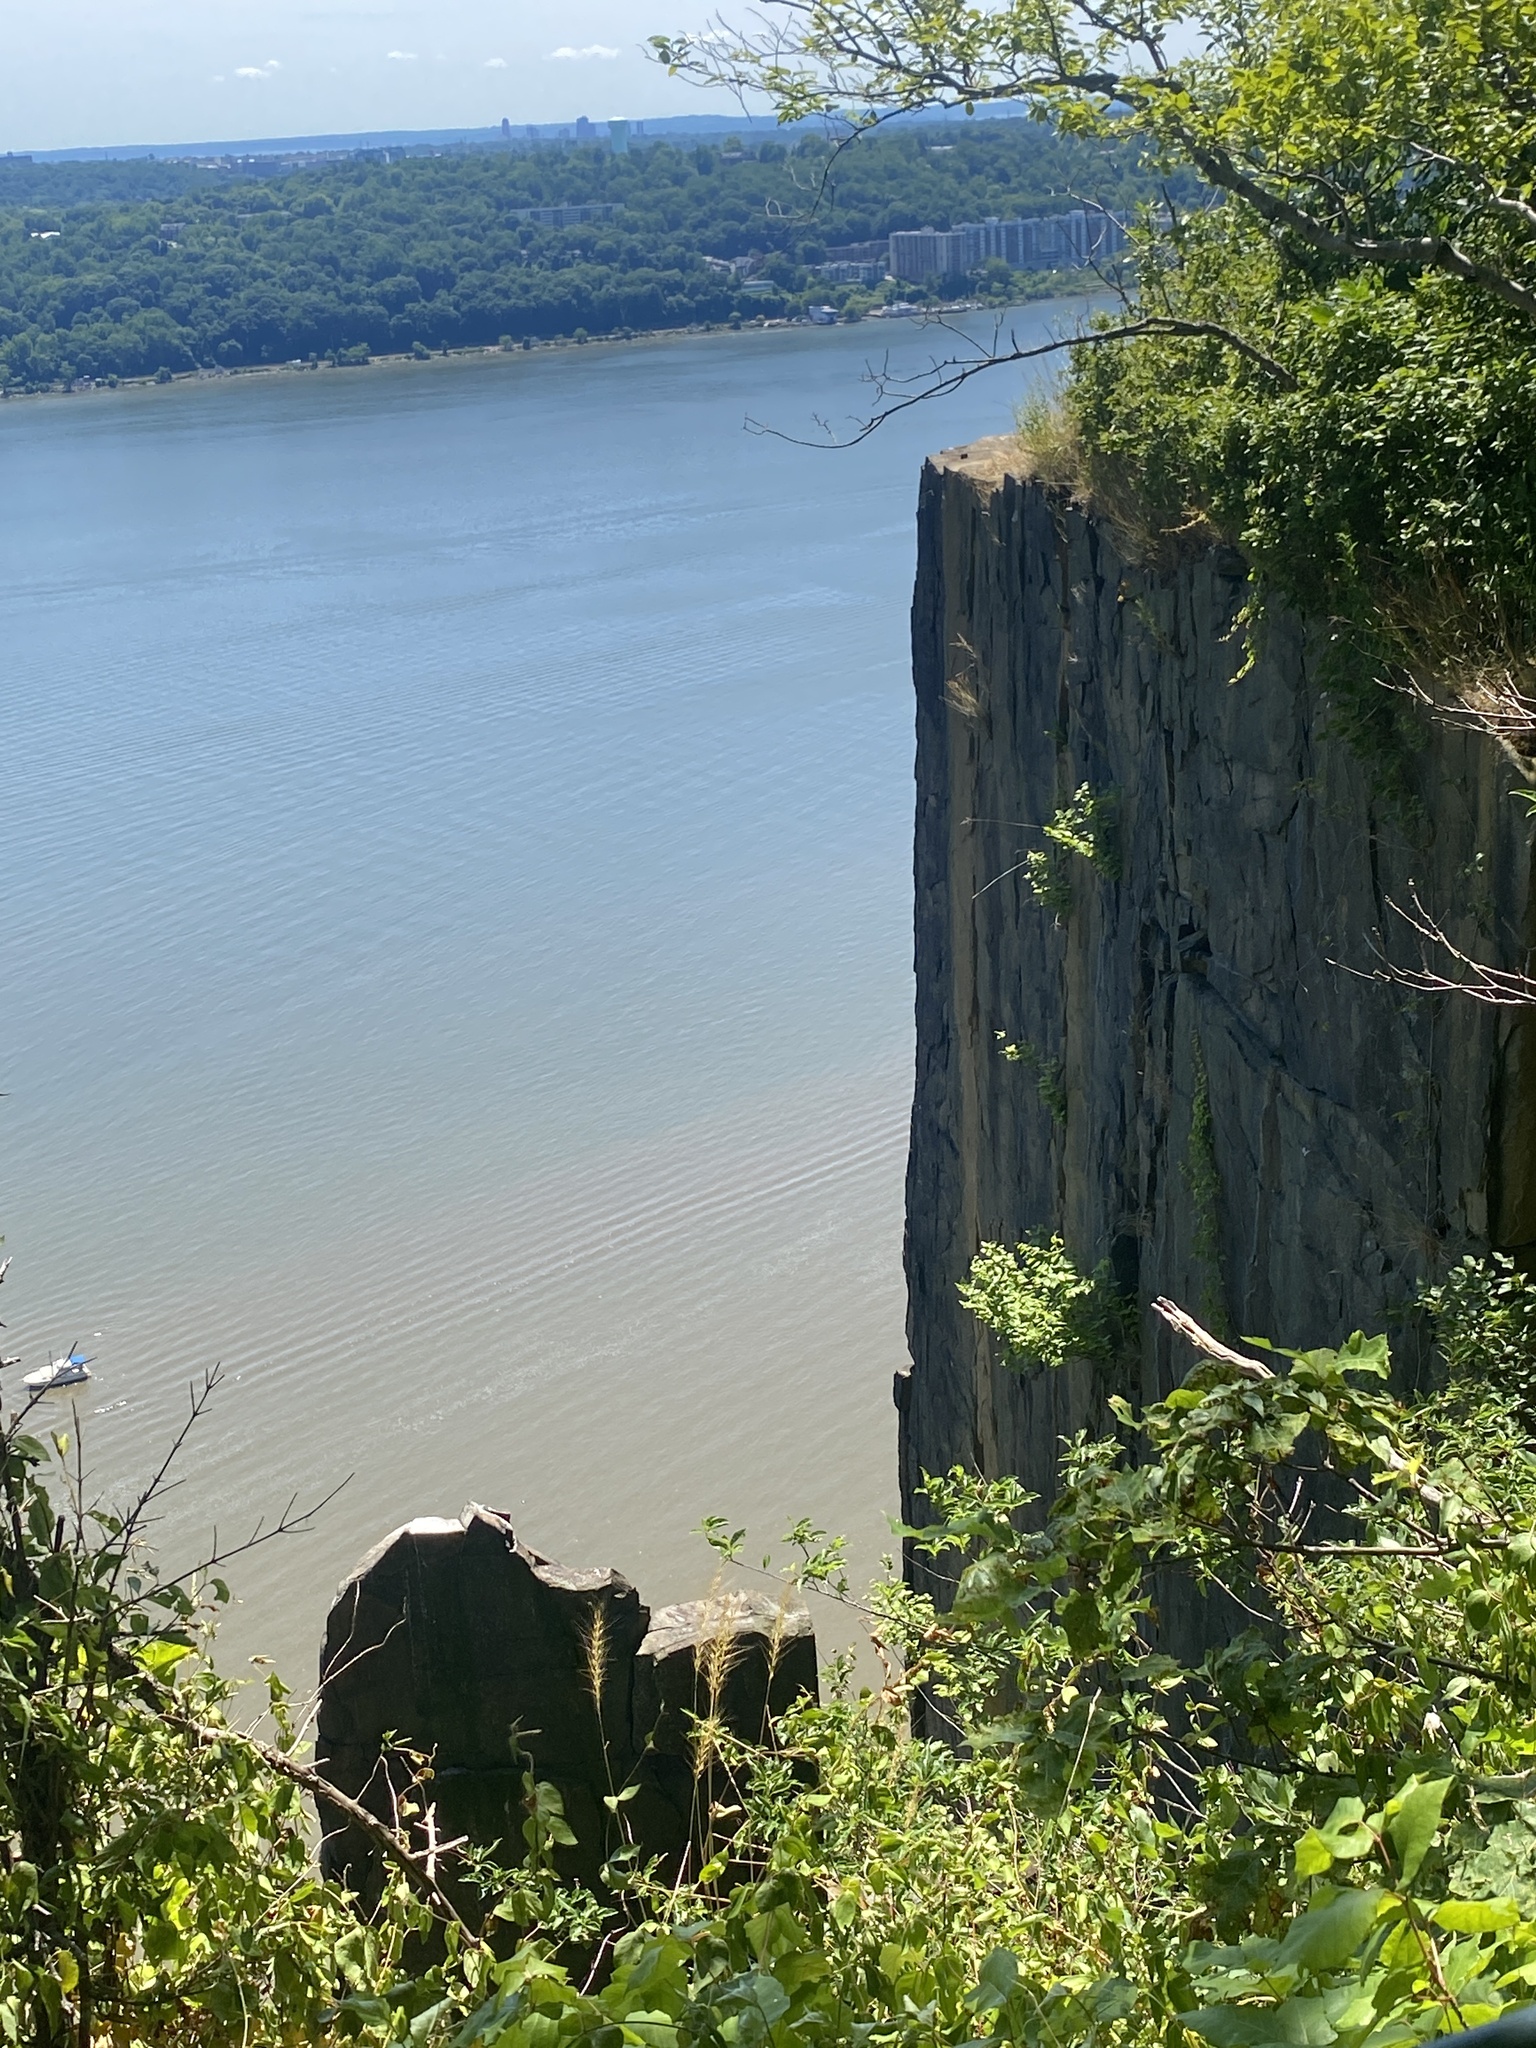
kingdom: Plantae
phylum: Tracheophyta
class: Magnoliopsida
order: Caryophyllales
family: Caryophyllaceae
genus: Silene
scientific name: Silene vulgaris
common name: Bladder campion
